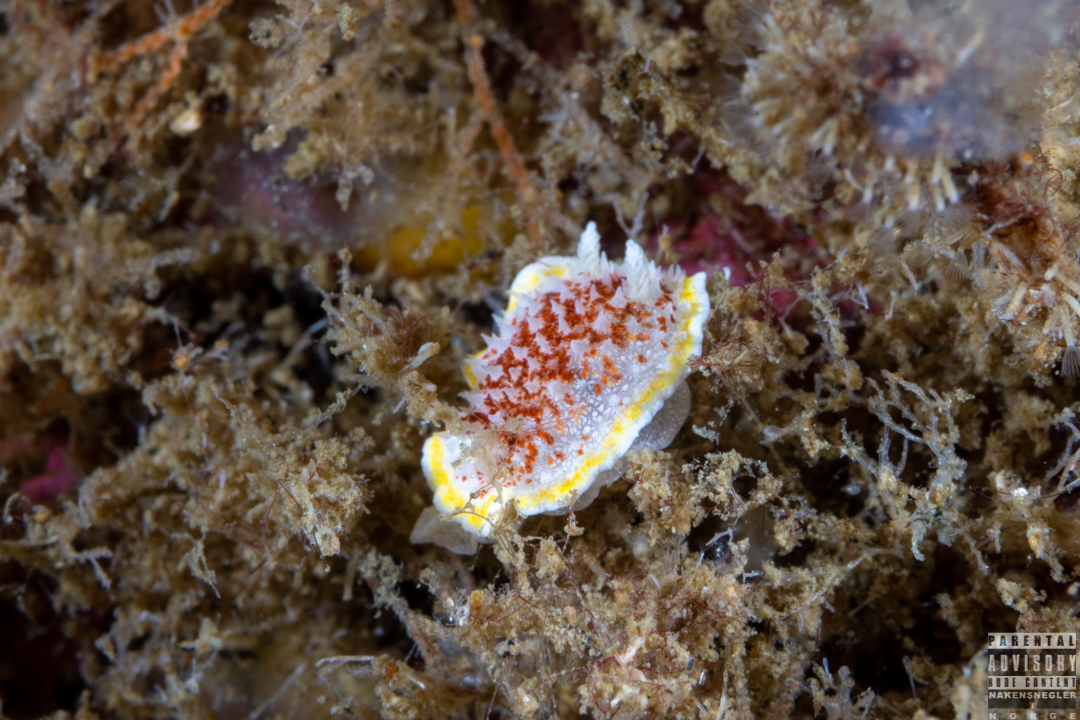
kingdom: Animalia
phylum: Mollusca
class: Gastropoda
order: Nudibranchia
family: Calycidorididae
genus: Diaphorodoris
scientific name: Diaphorodoris luteocincta
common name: Fried egg nudibranch
